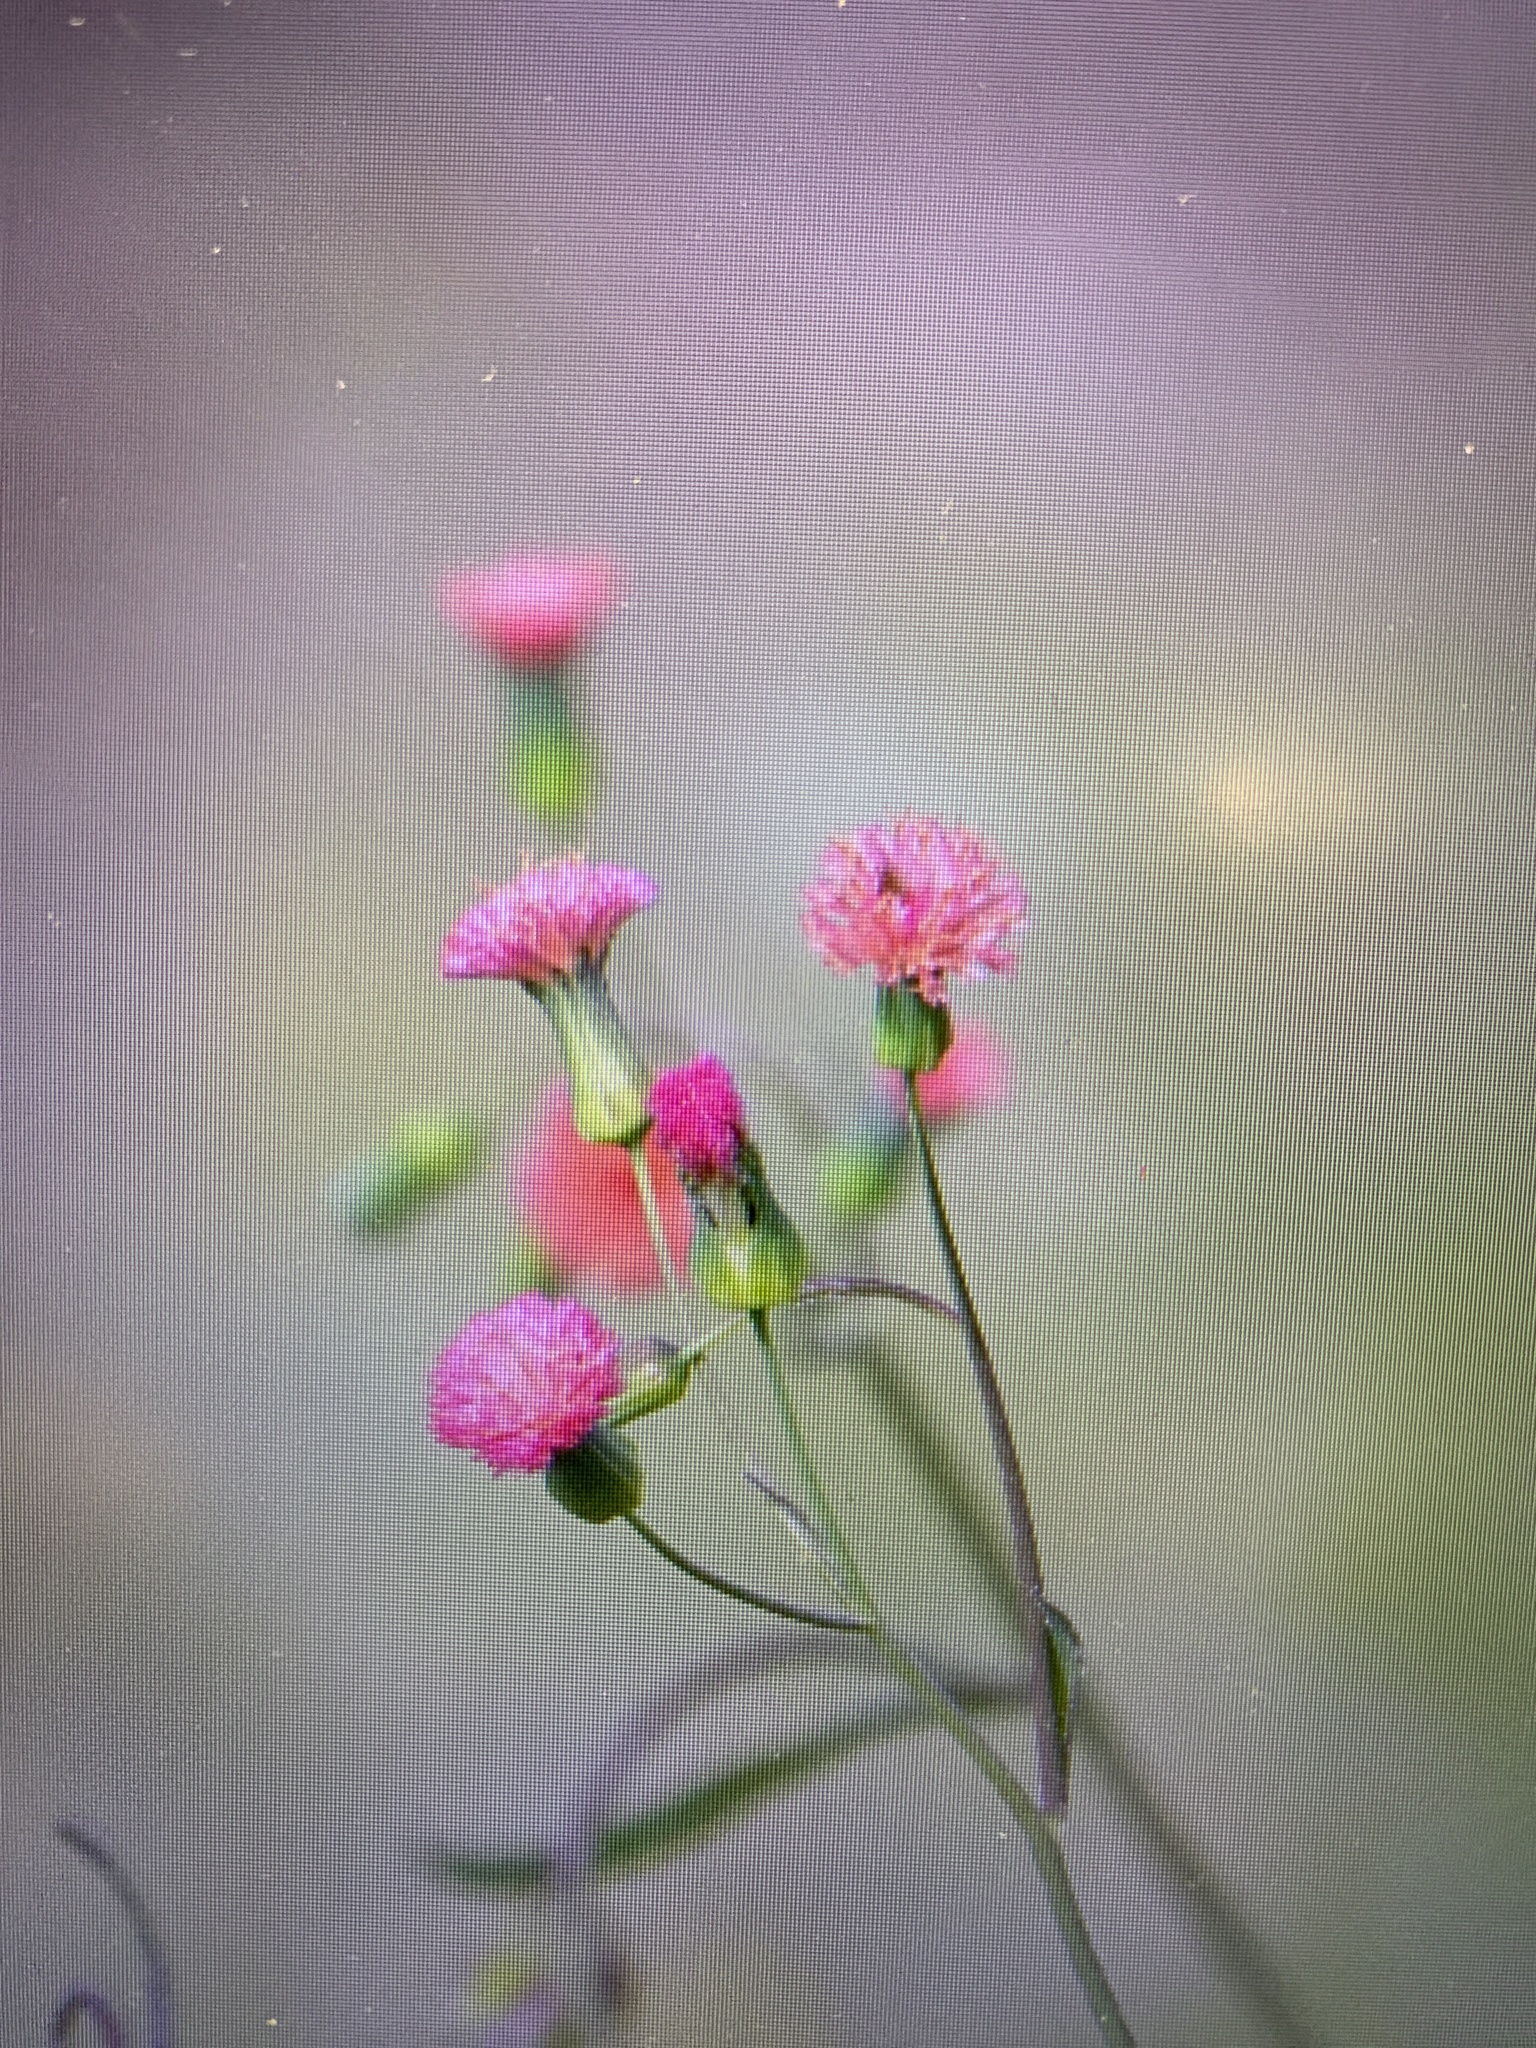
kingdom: Plantae
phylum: Tracheophyta
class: Magnoliopsida
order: Asterales
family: Asteraceae
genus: Emilia
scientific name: Emilia fosbergii
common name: Florida tasselflower
